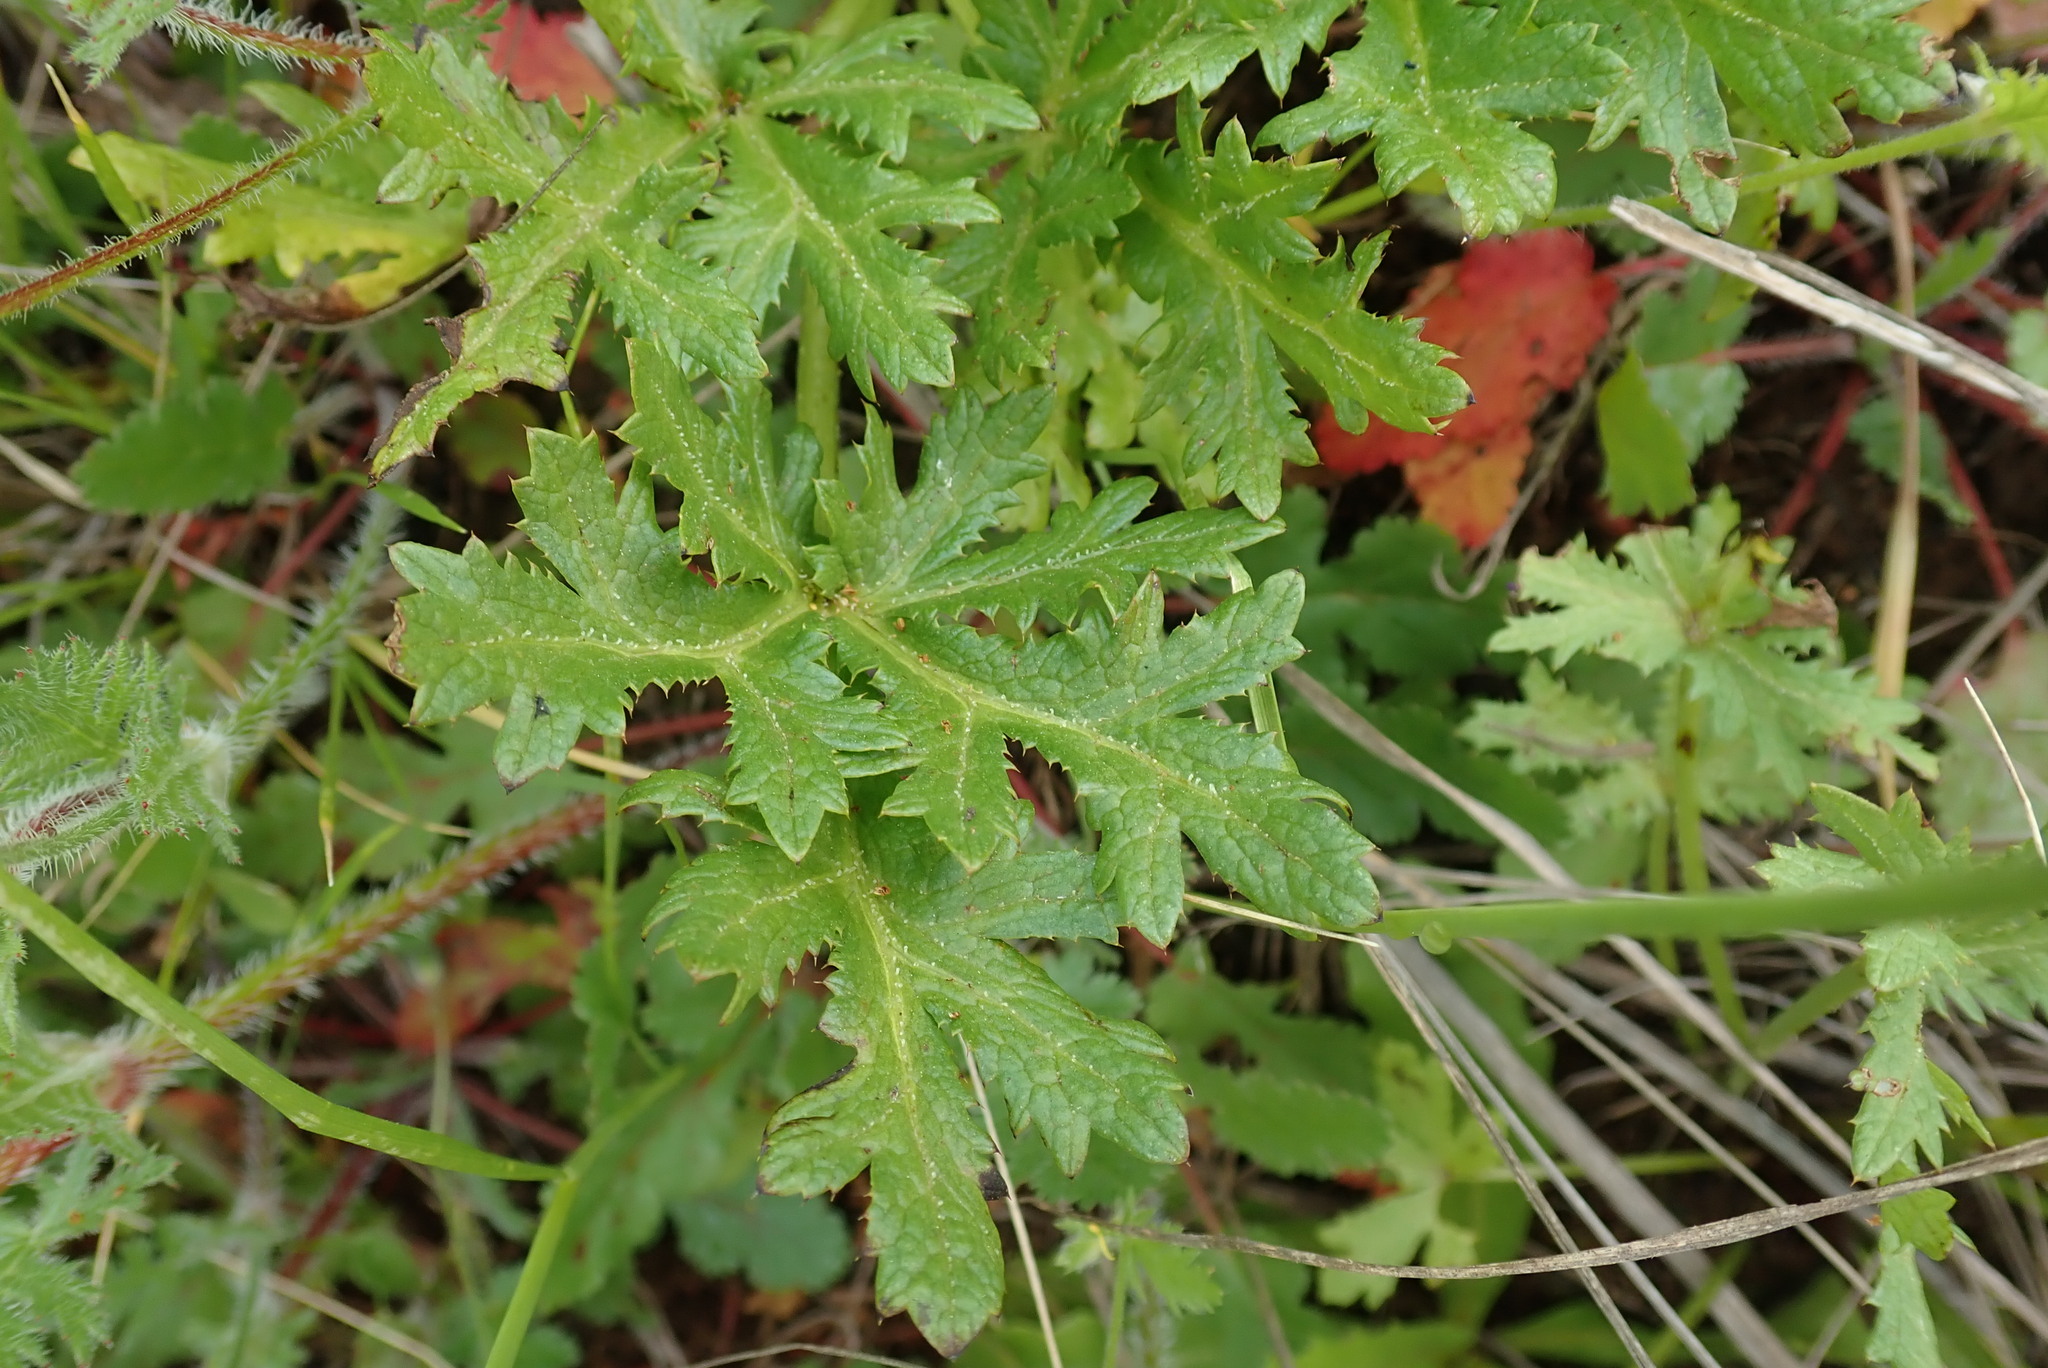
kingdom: Plantae
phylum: Tracheophyta
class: Magnoliopsida
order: Apiales
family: Apiaceae
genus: Sanicula
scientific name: Sanicula arguta
